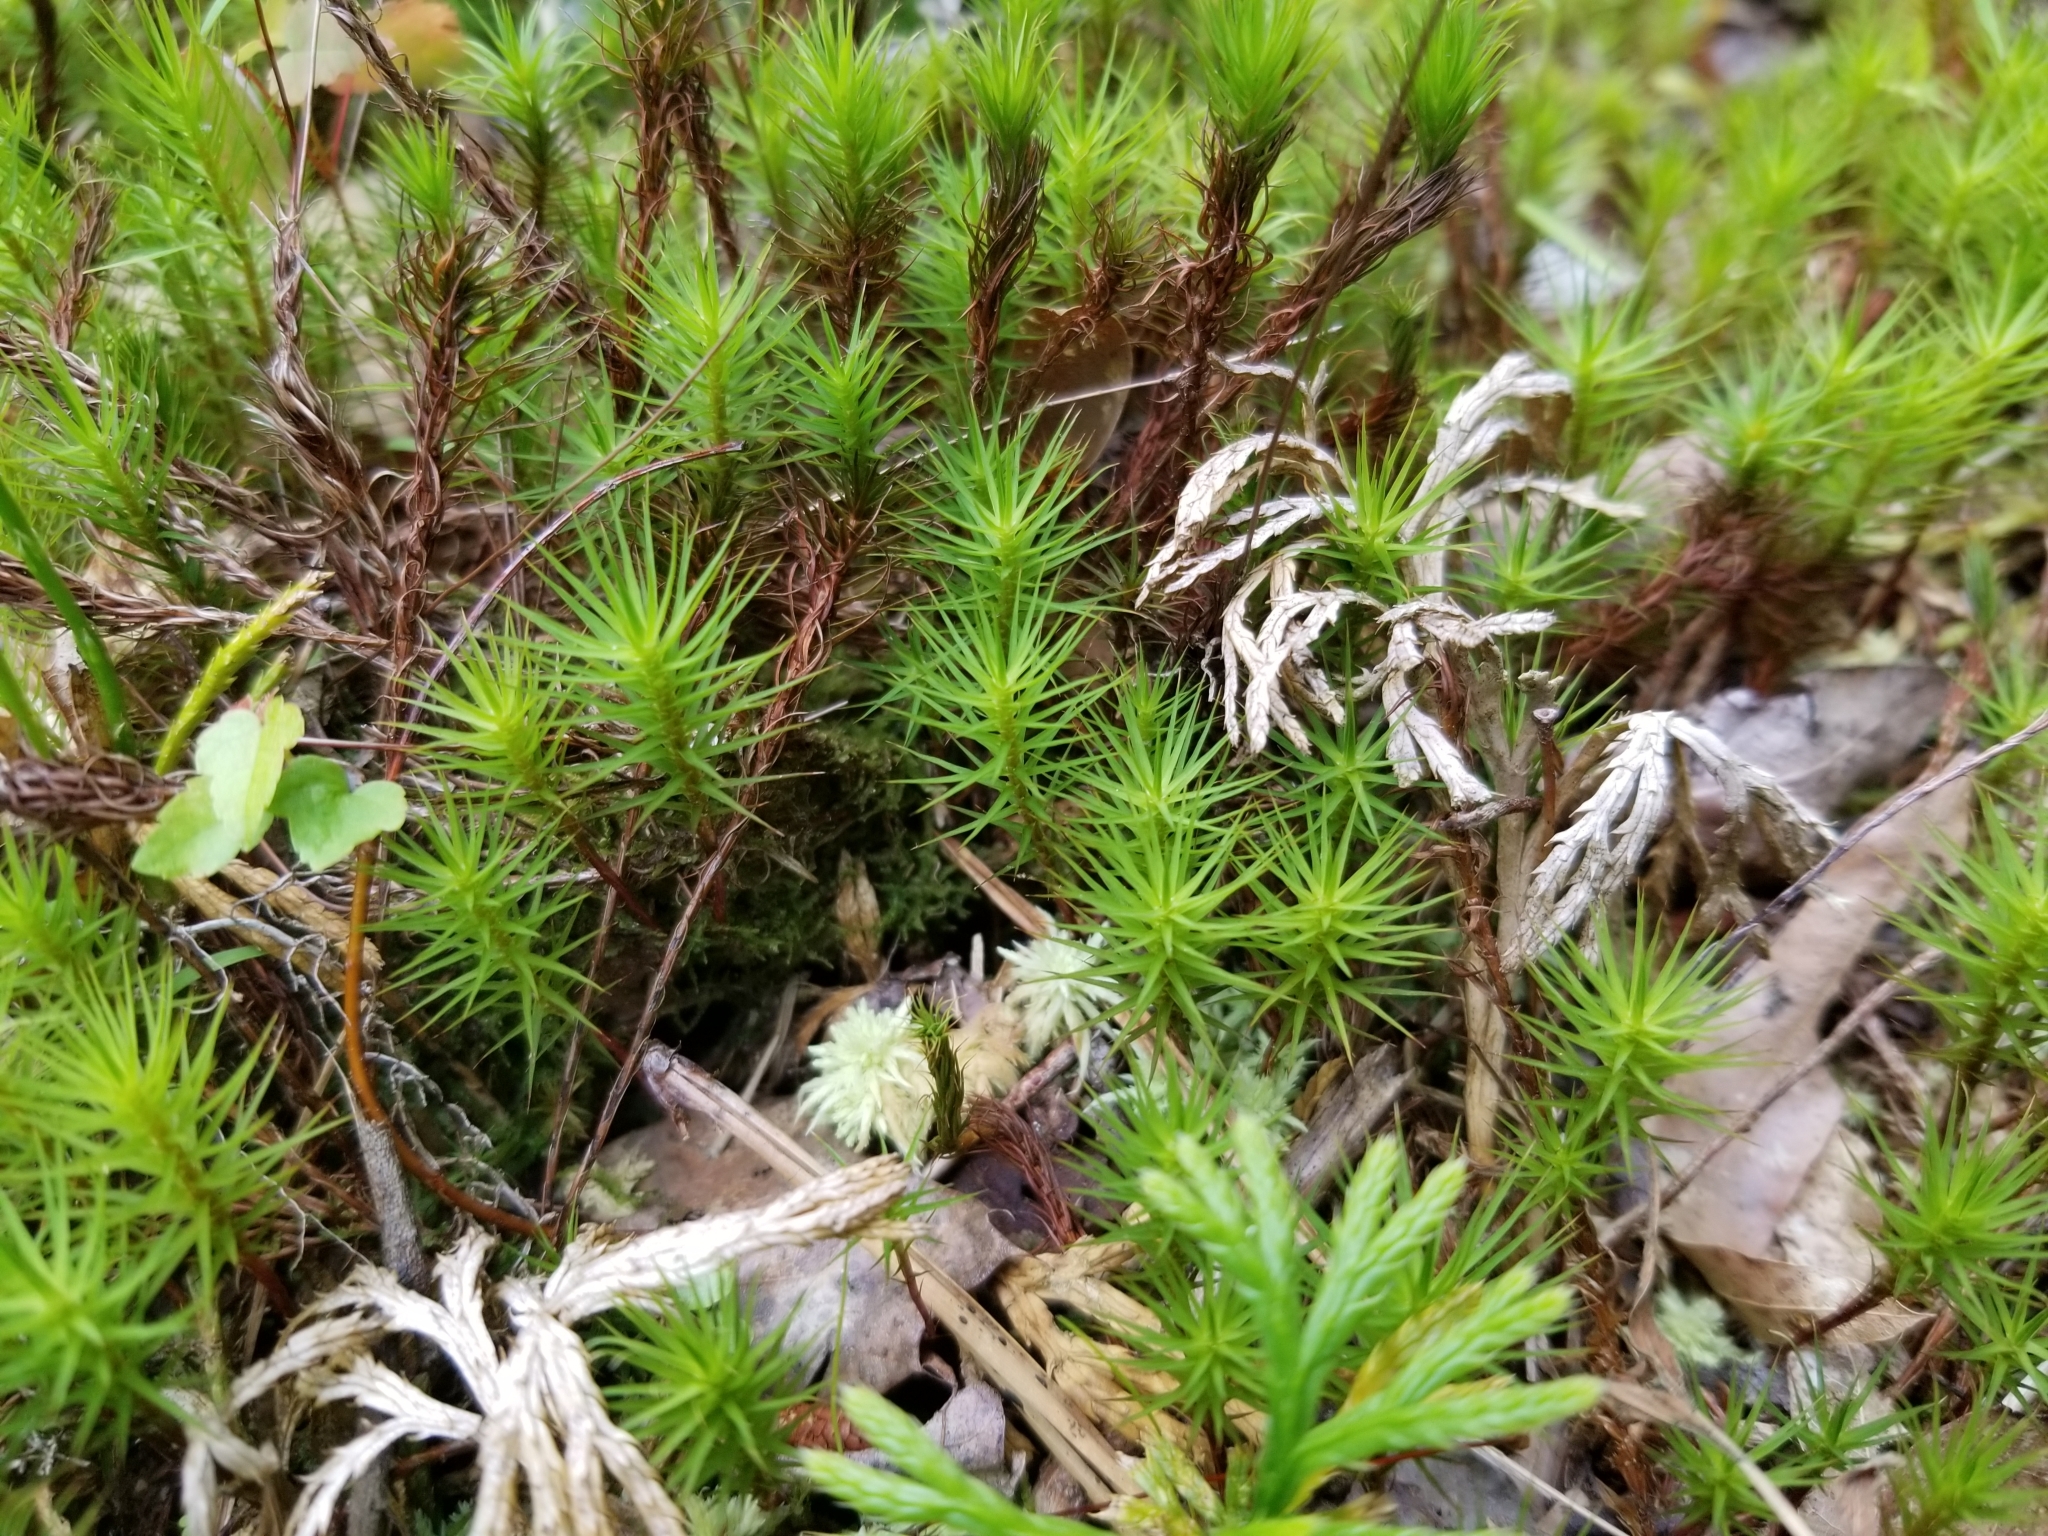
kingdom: Plantae
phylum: Bryophyta
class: Polytrichopsida
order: Polytrichales
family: Polytrichaceae
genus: Polytrichum
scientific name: Polytrichum commune
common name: Common haircap
